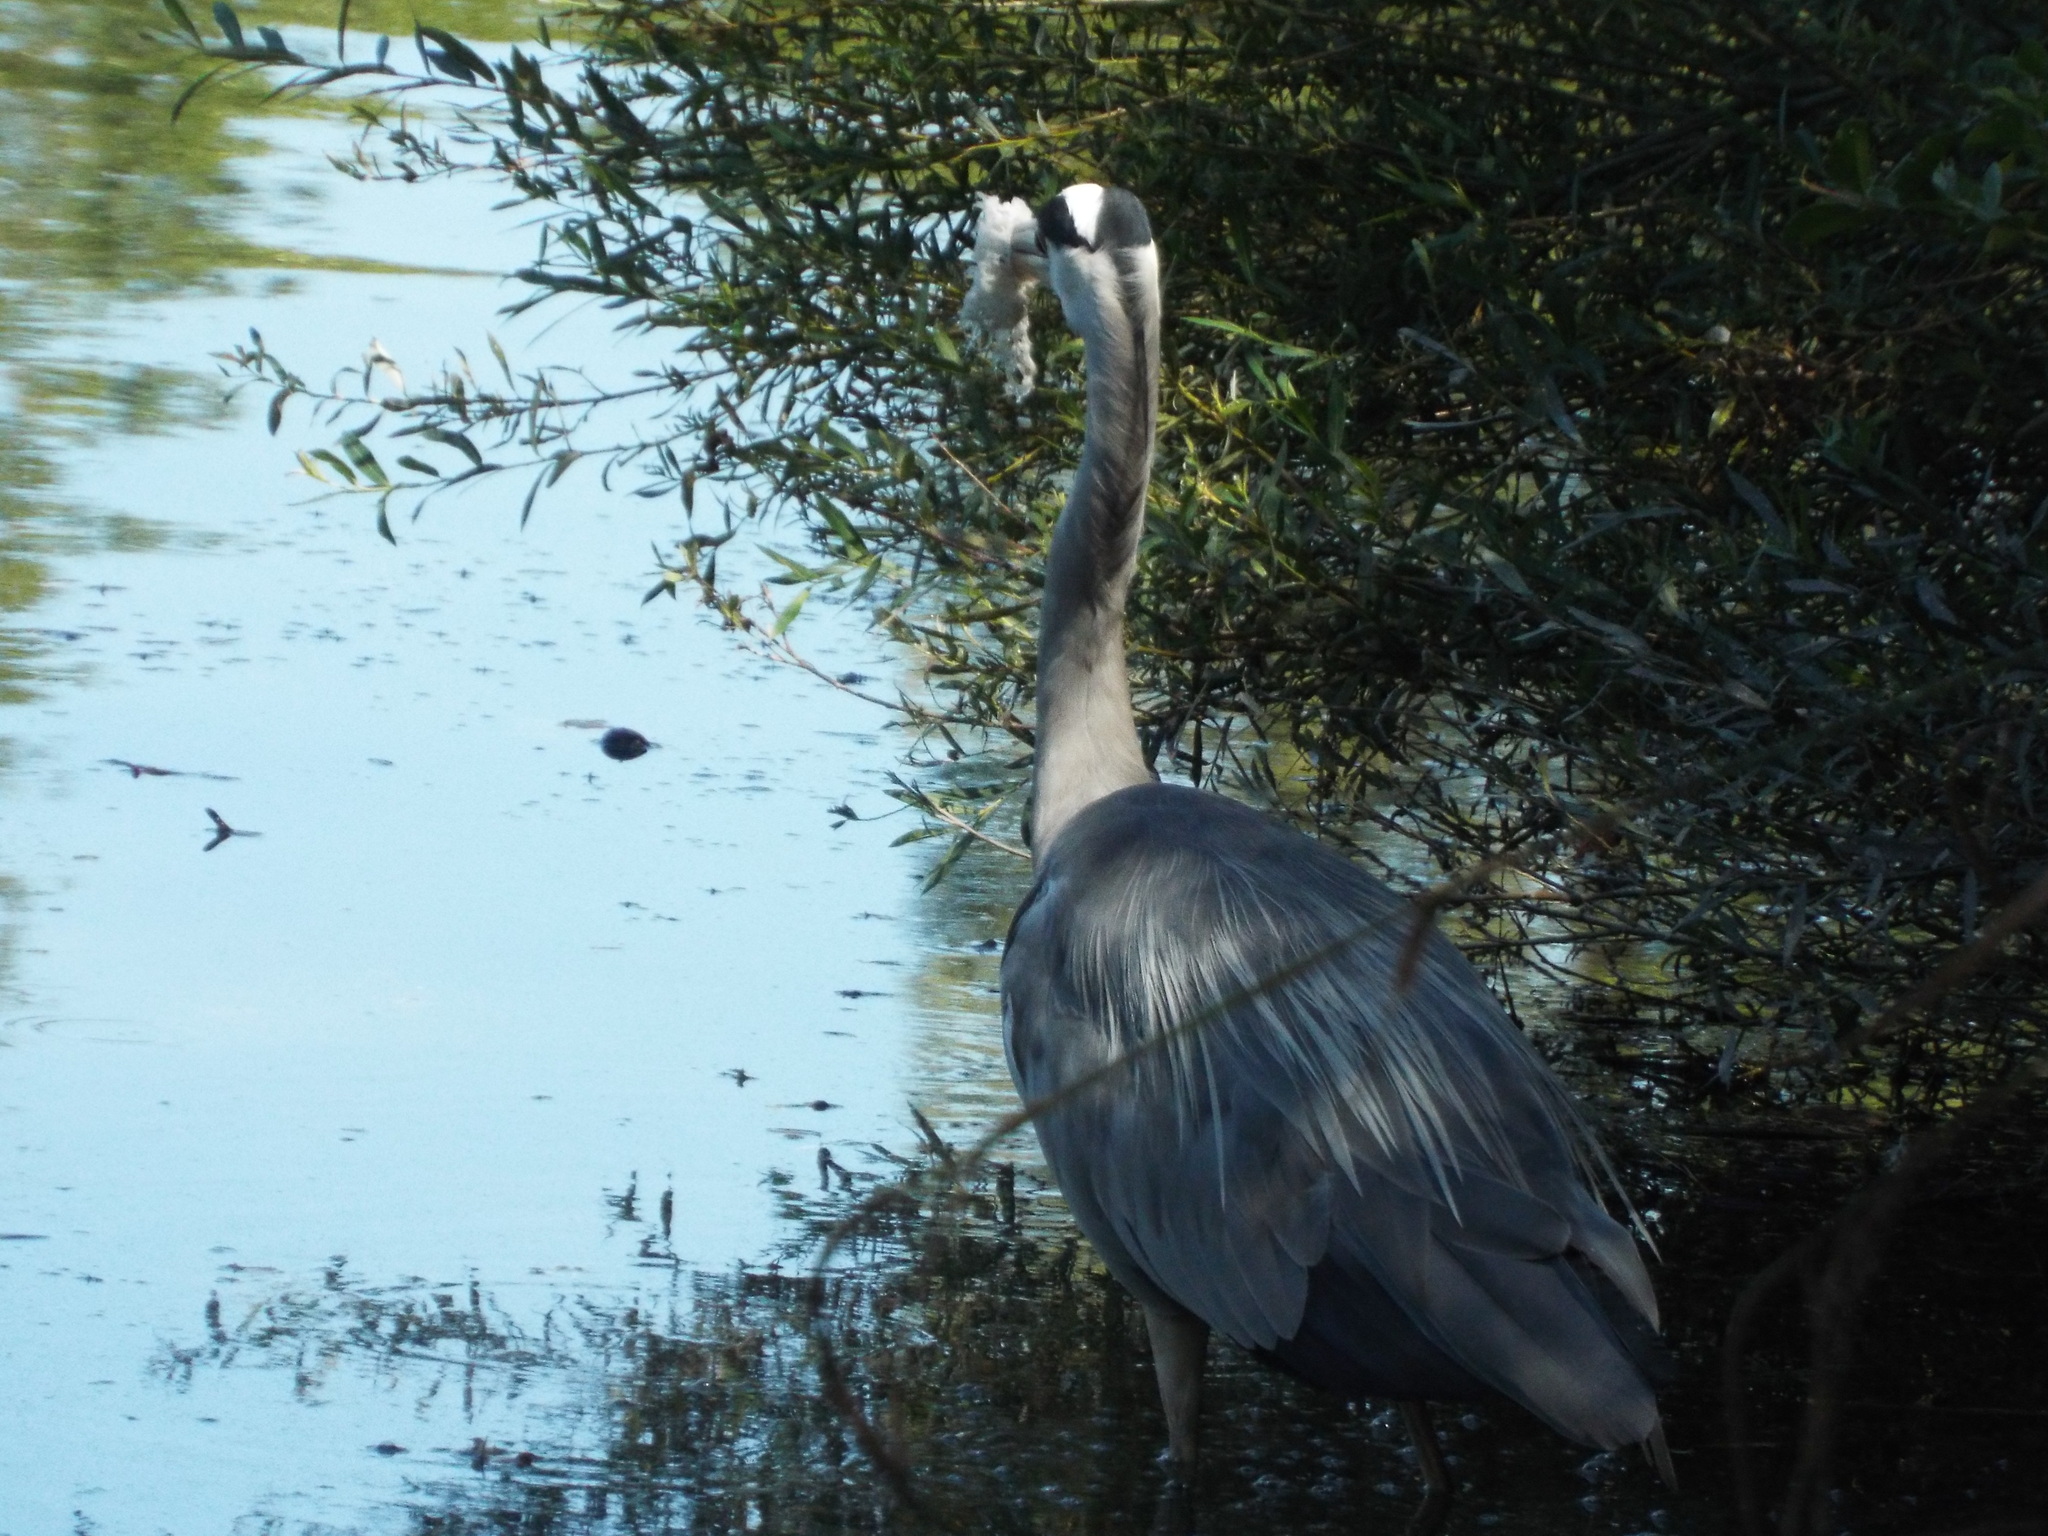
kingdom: Animalia
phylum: Chordata
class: Aves
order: Pelecaniformes
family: Ardeidae
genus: Ardea
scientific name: Ardea cinerea
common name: Grey heron
